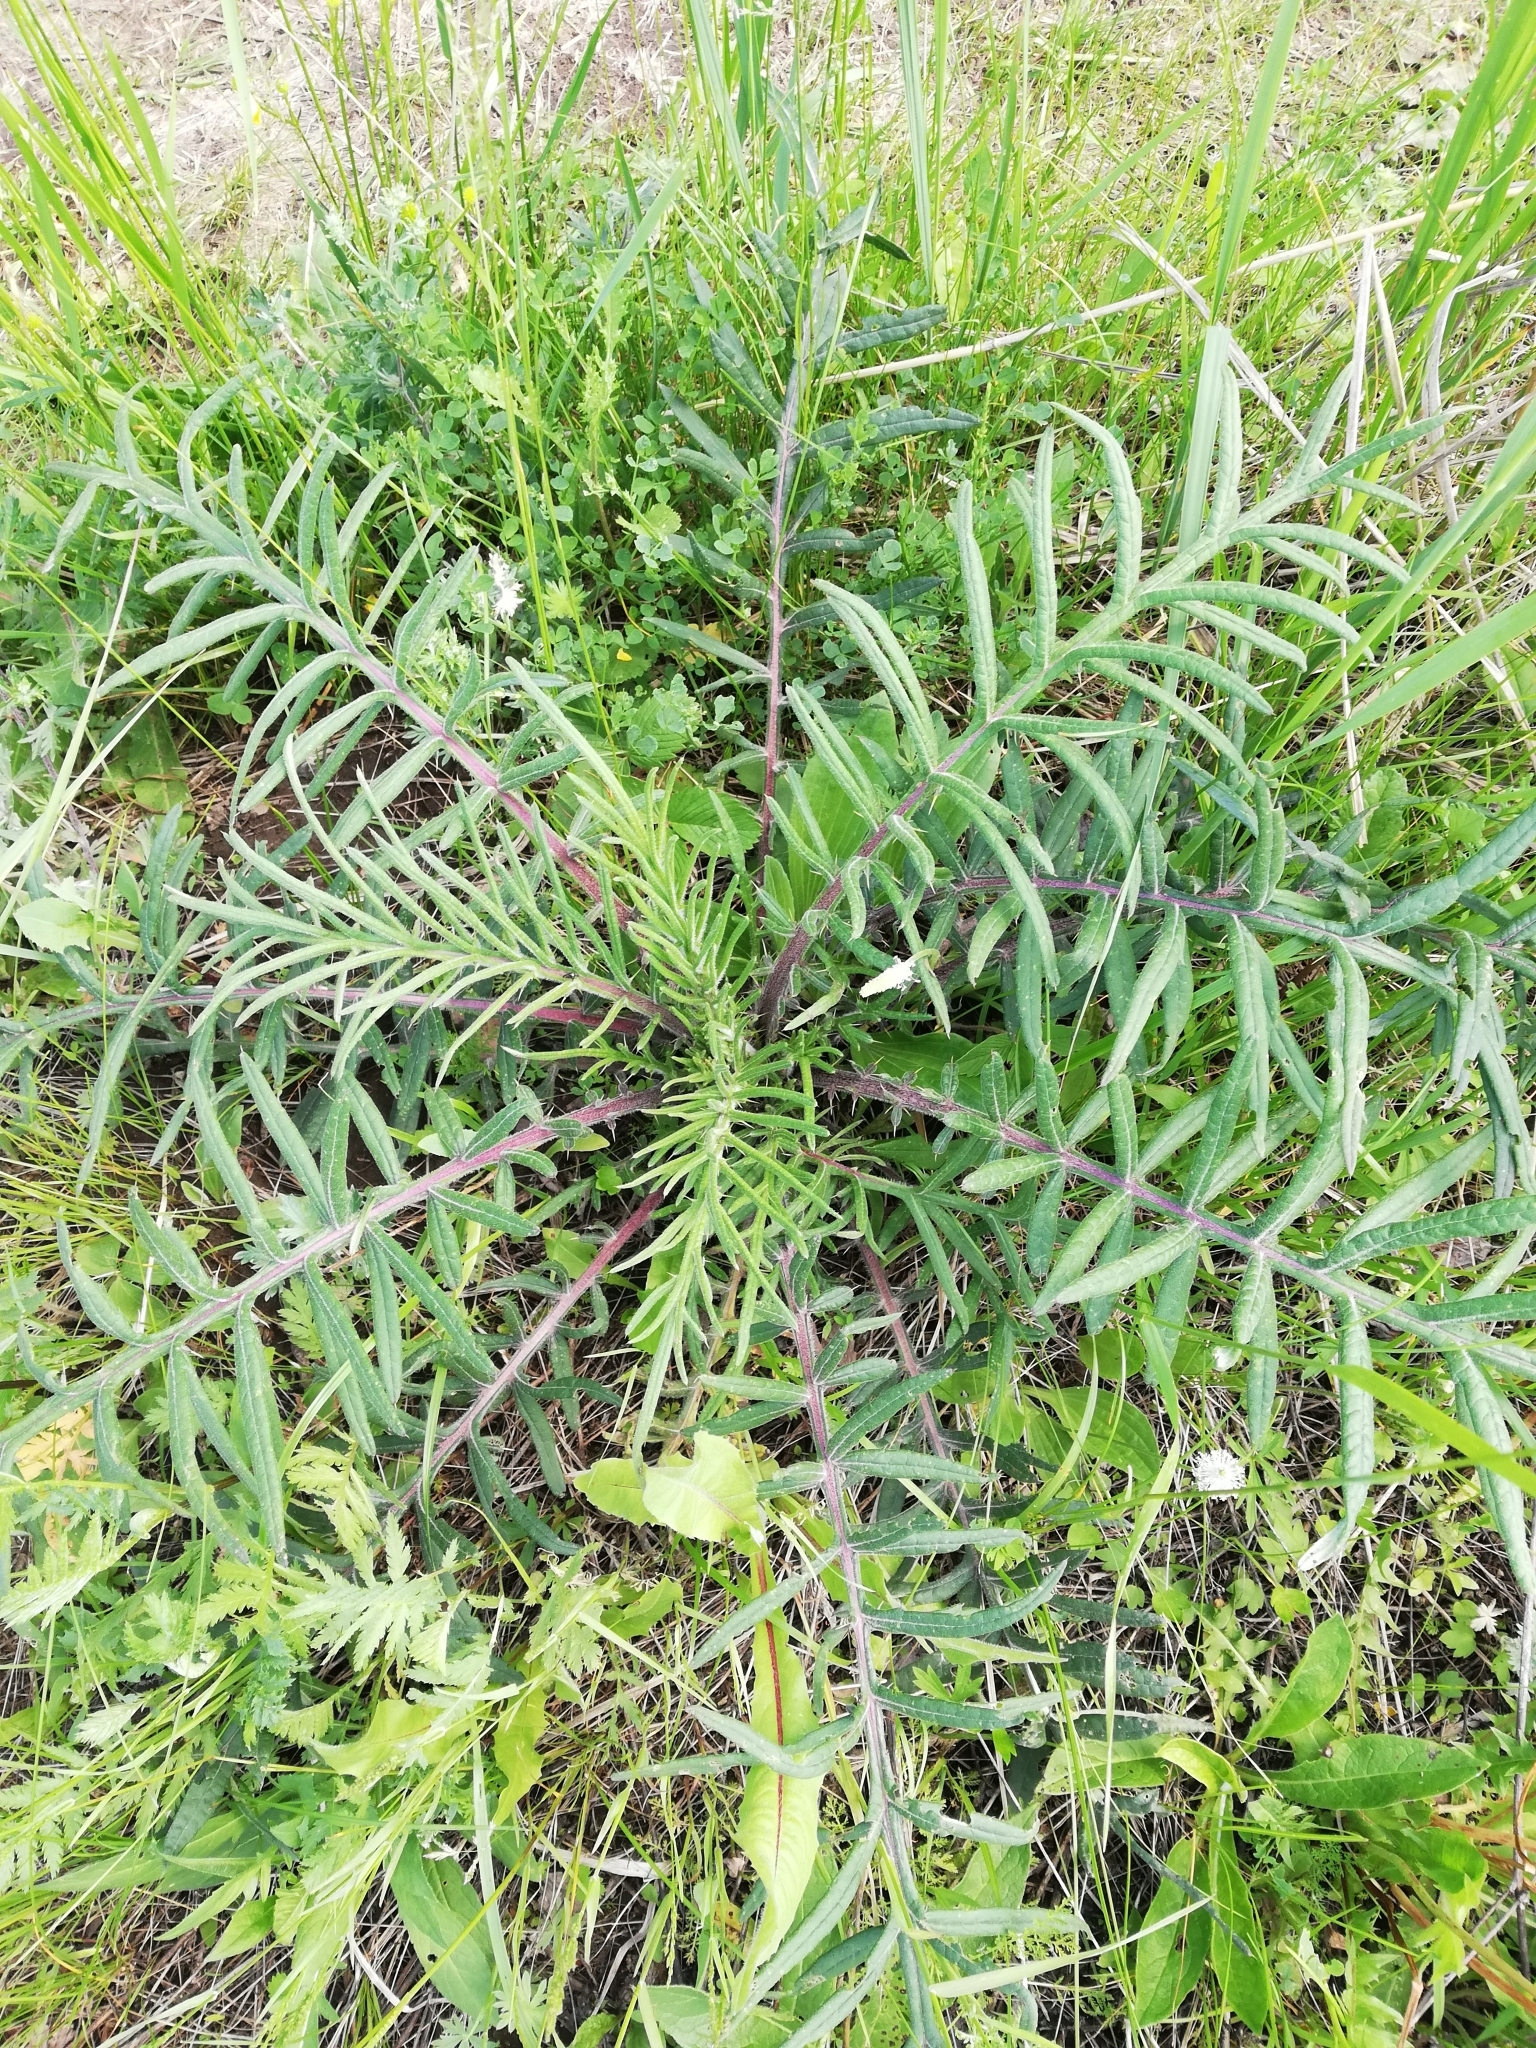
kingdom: Plantae
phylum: Tracheophyta
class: Magnoliopsida
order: Asterales
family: Asteraceae
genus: Lophiolepis
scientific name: Lophiolepis decussata
